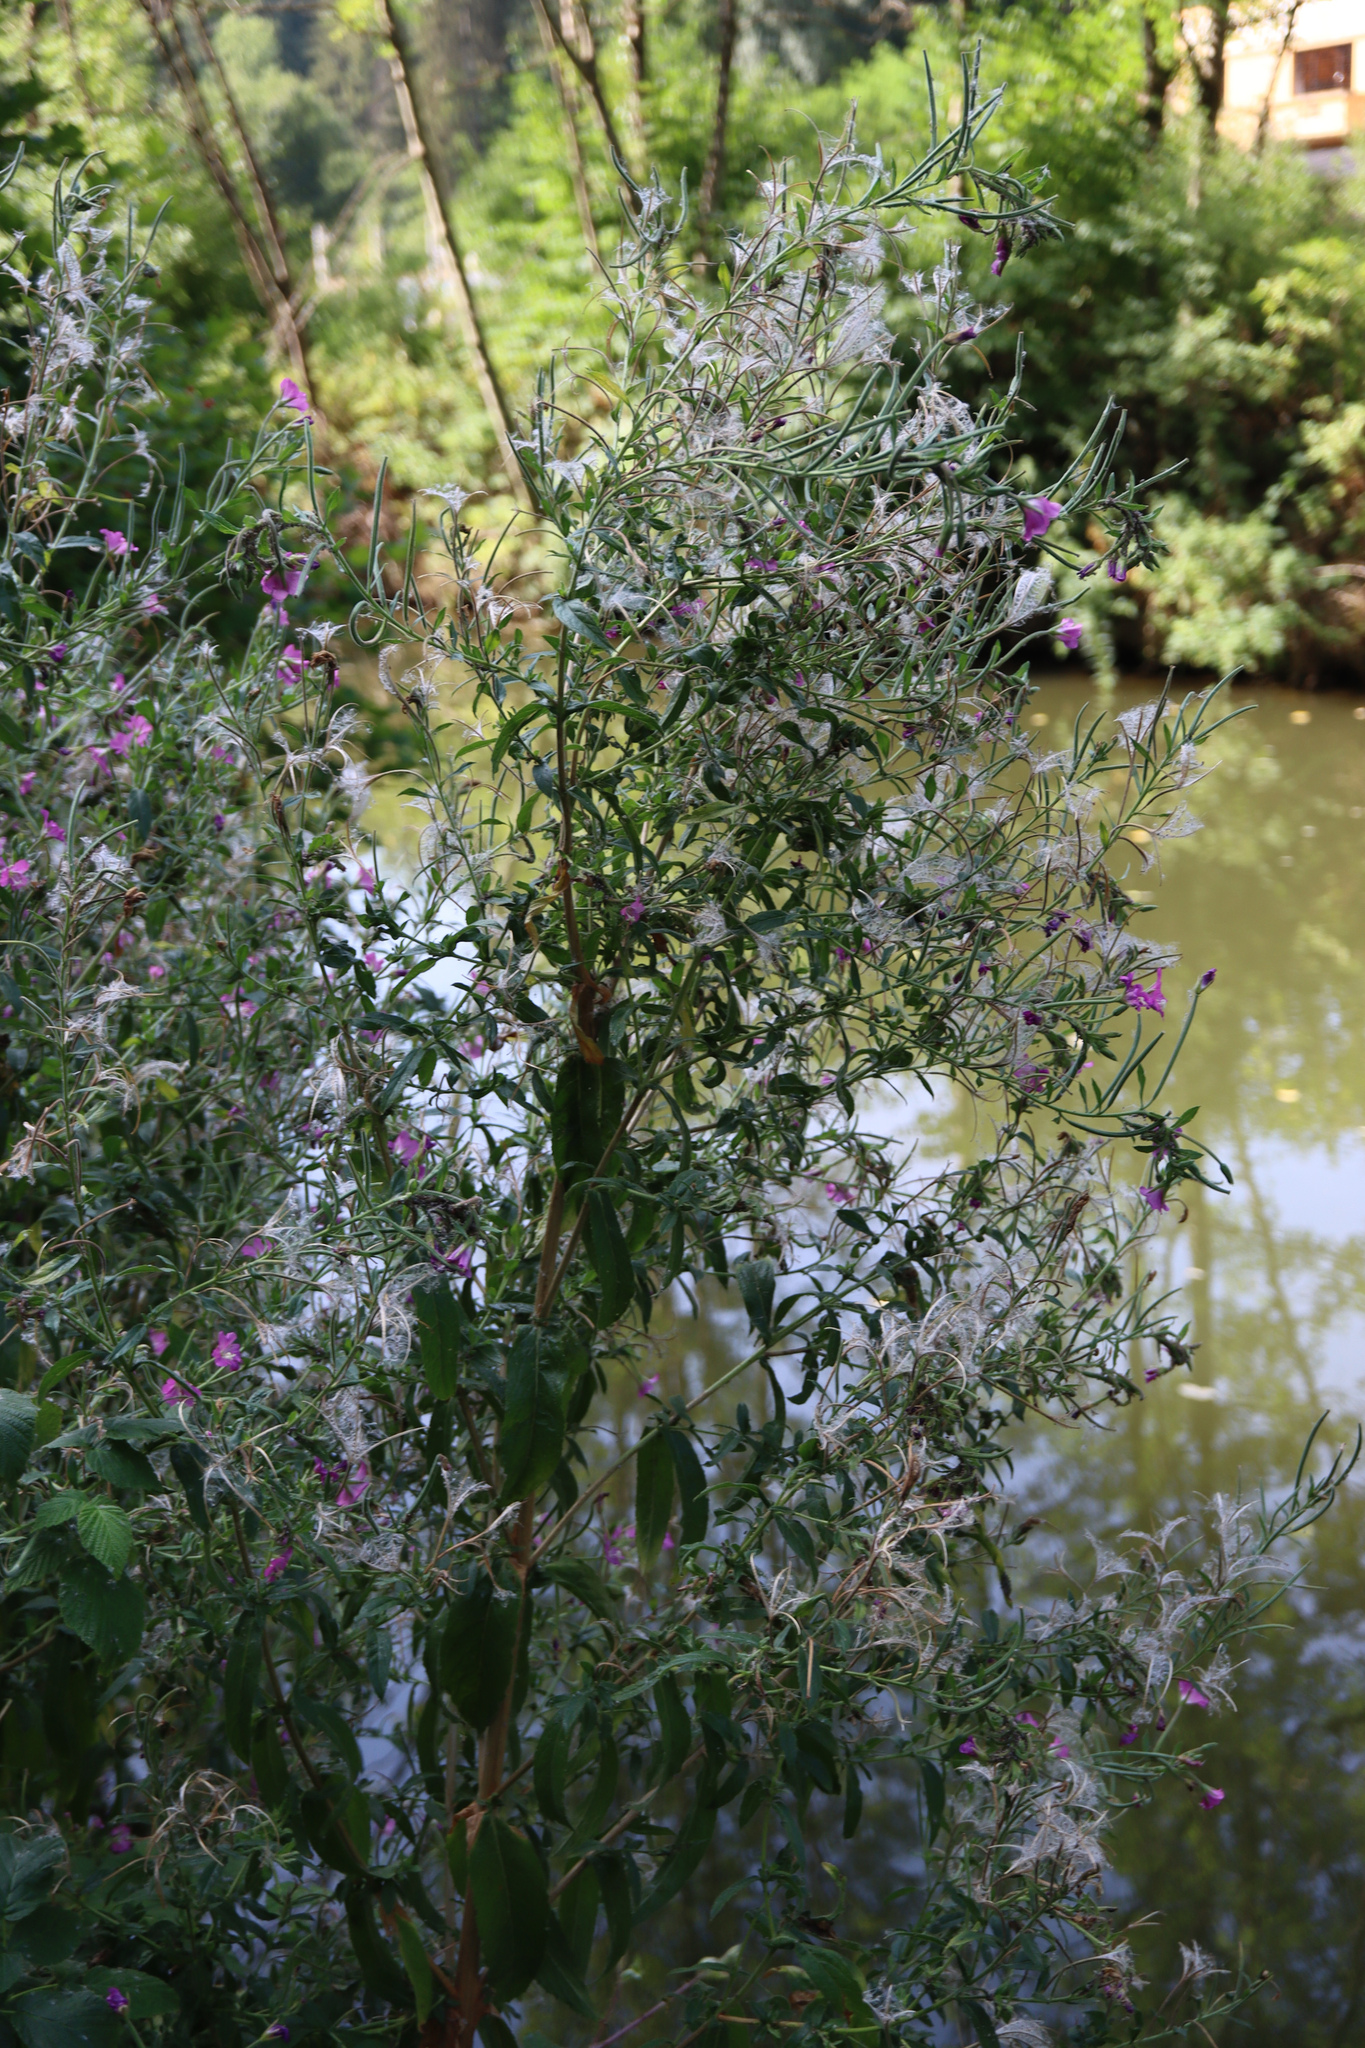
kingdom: Plantae
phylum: Tracheophyta
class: Magnoliopsida
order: Myrtales
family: Onagraceae
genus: Epilobium
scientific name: Epilobium hirsutum
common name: Great willowherb
